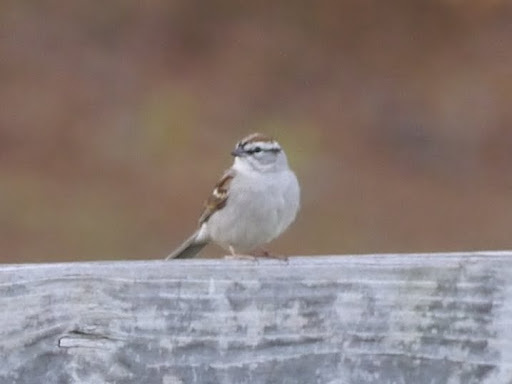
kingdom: Animalia
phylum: Chordata
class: Aves
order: Passeriformes
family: Passerellidae
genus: Spizella
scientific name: Spizella passerina
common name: Chipping sparrow
